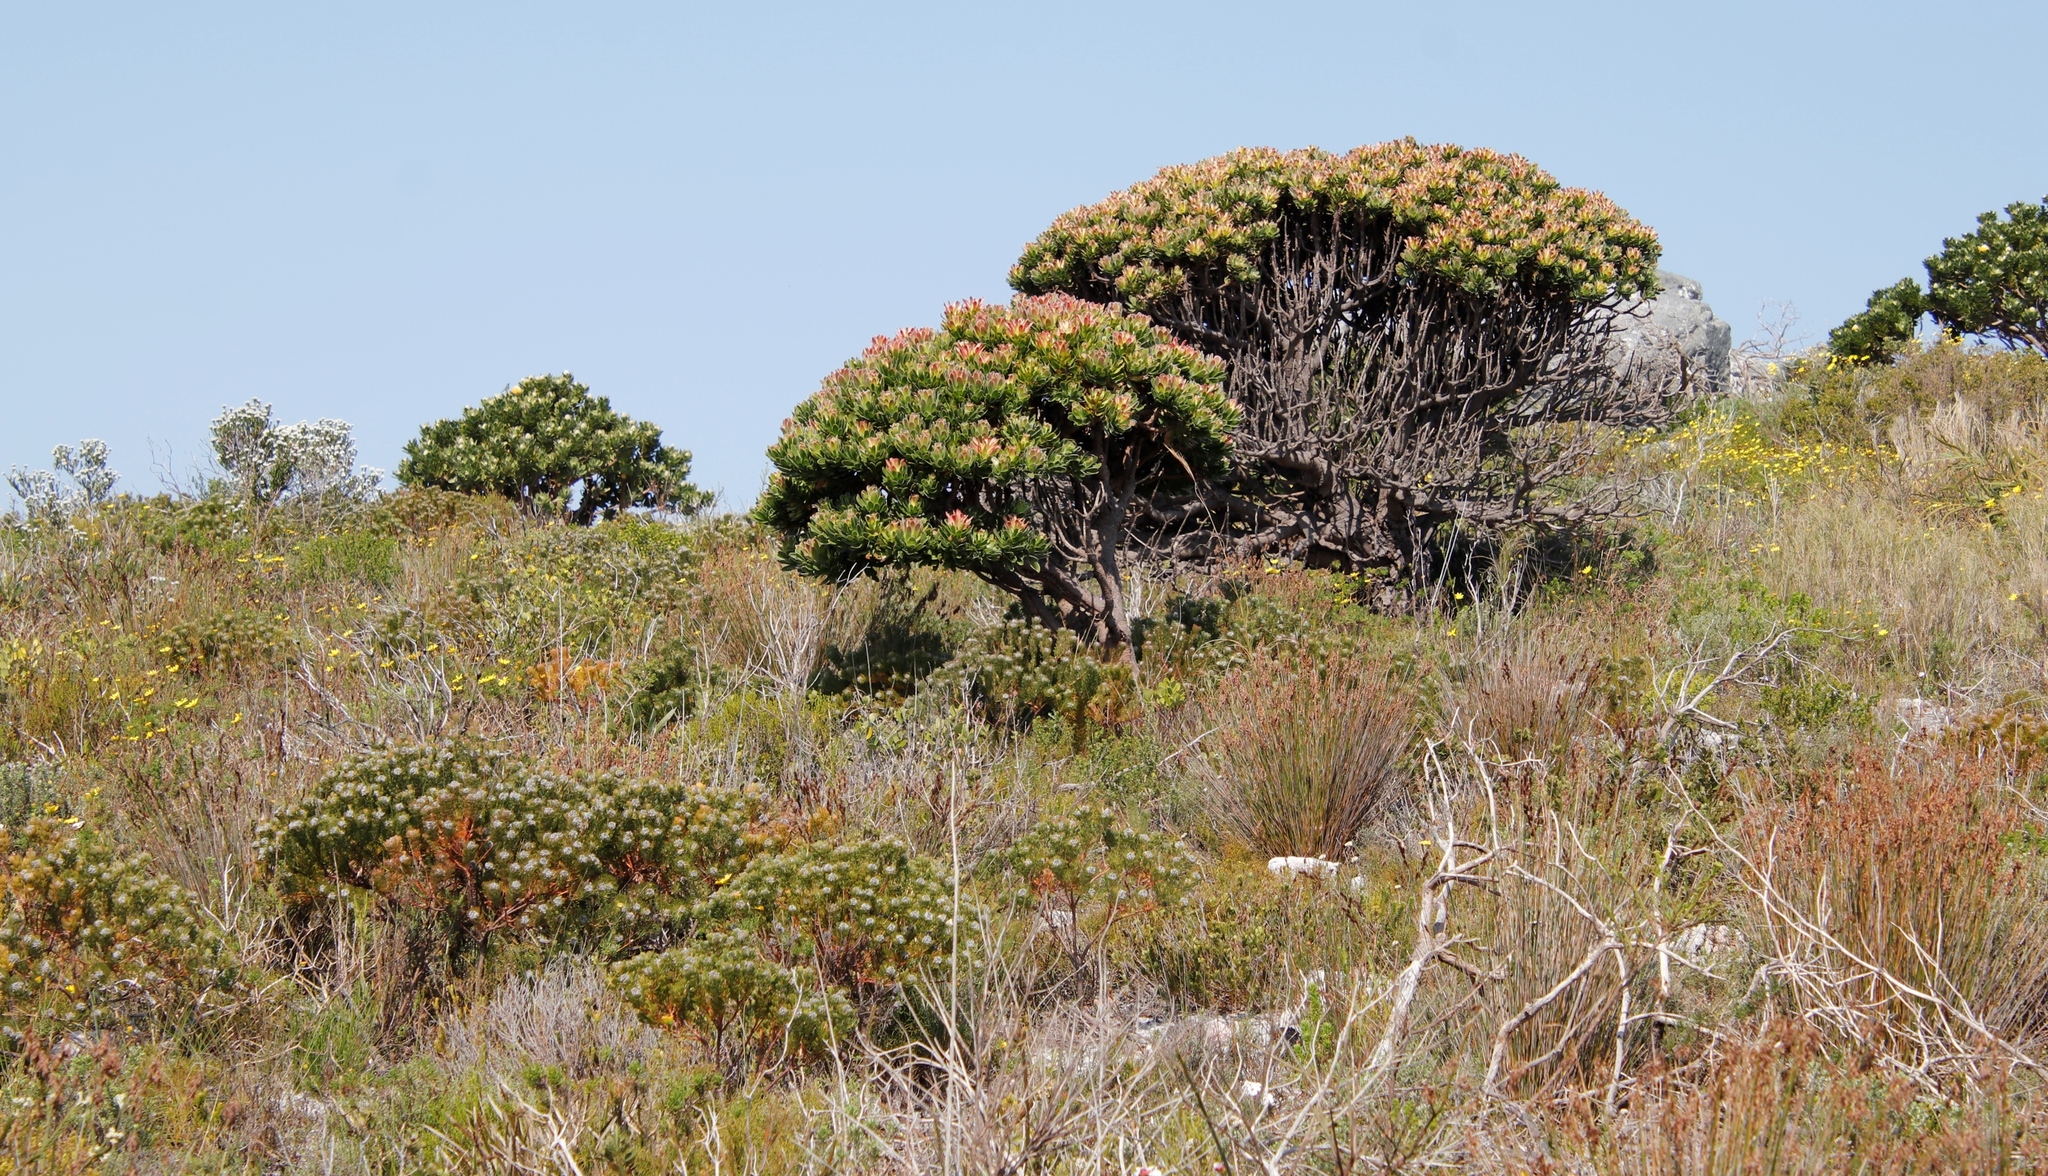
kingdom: Plantae
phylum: Tracheophyta
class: Magnoliopsida
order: Proteales
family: Proteaceae
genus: Serruria
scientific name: Serruria villosa
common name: Golden spiderhead
